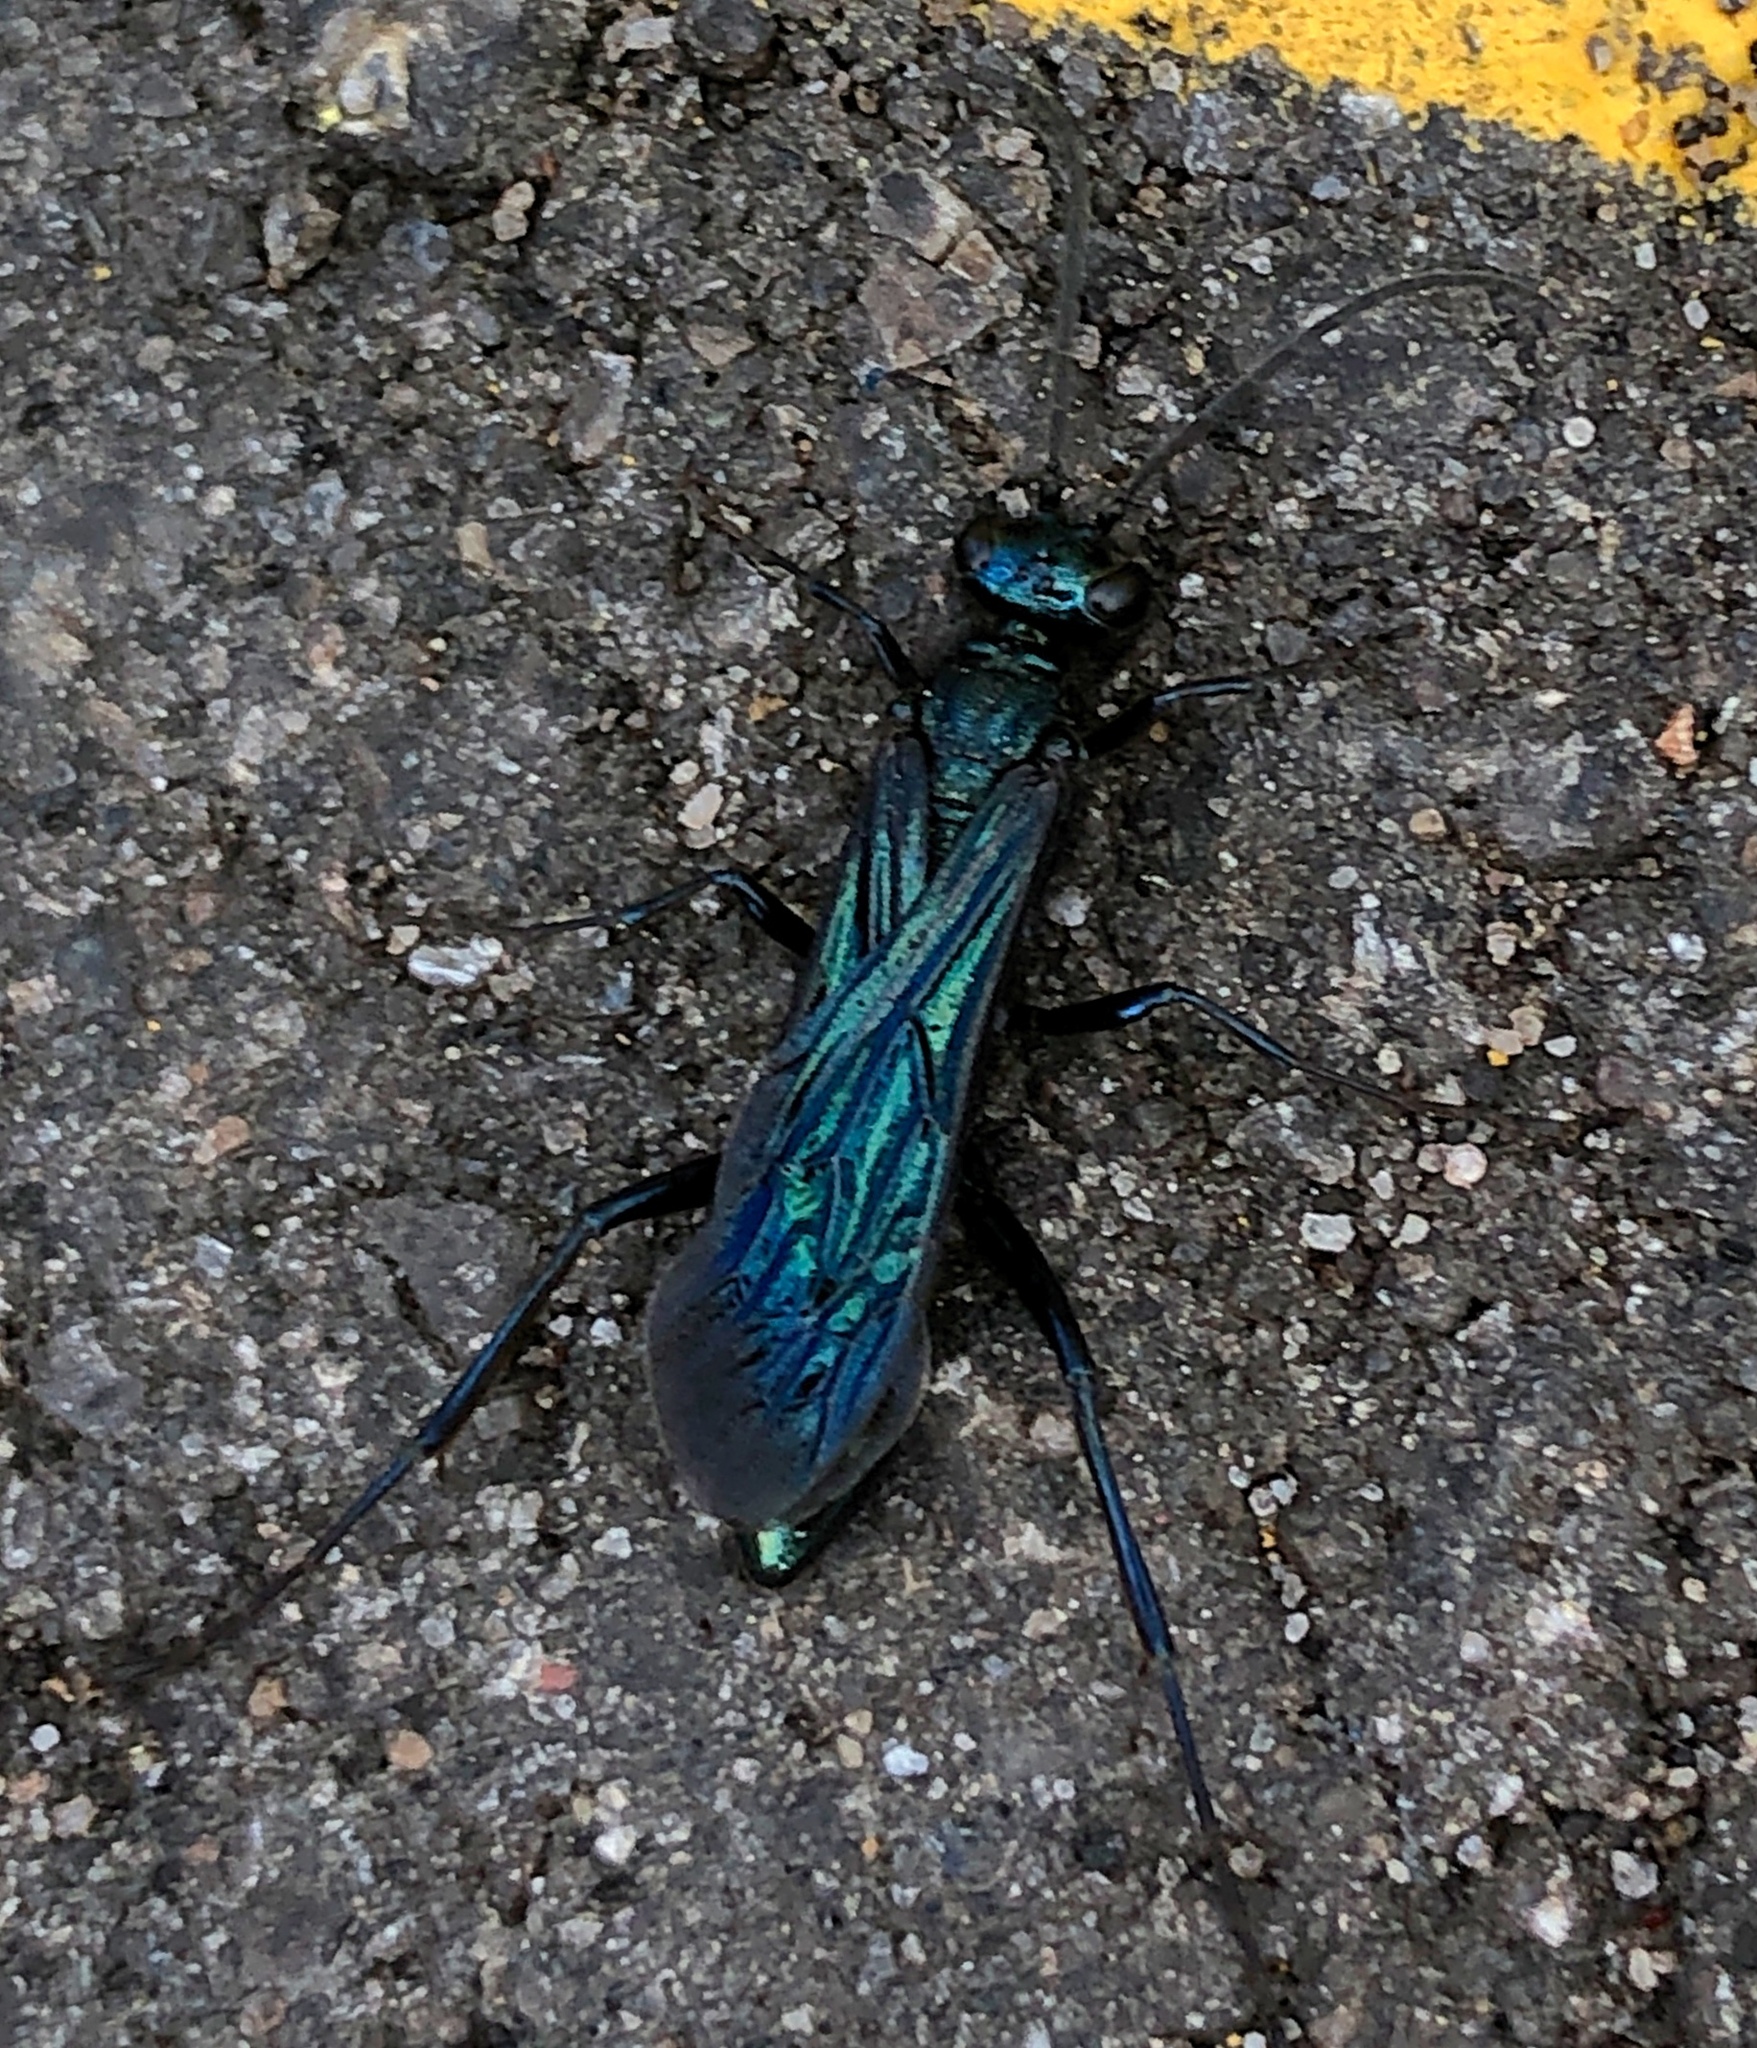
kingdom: Animalia
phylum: Arthropoda
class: Insecta
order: Hymenoptera
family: Sphecidae
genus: Chalybion
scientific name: Chalybion californicum
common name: Mud dauber
